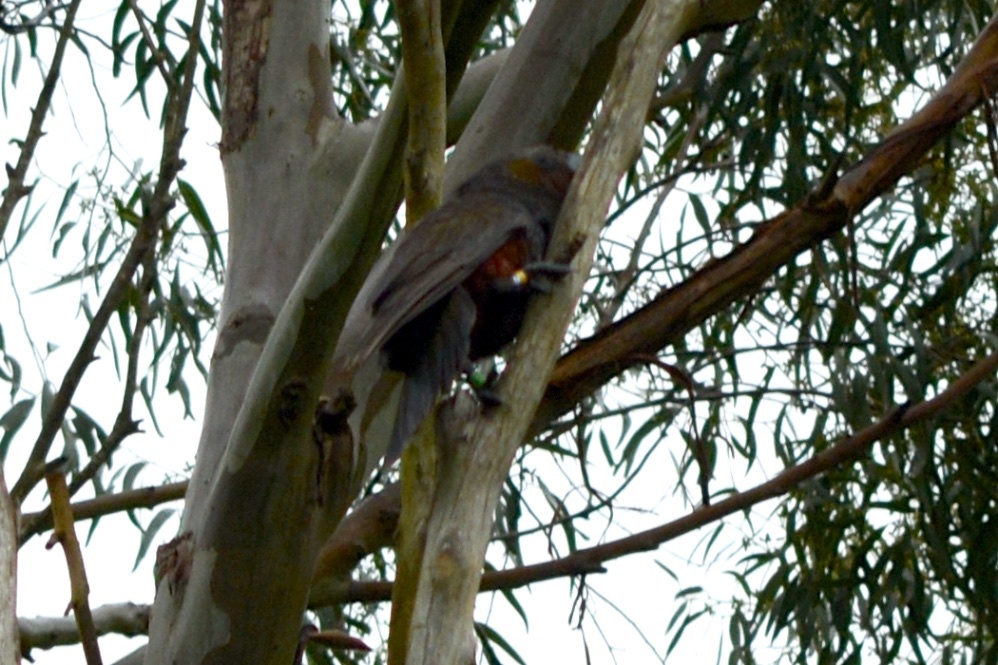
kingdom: Animalia
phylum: Chordata
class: Aves
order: Psittaciformes
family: Psittacidae
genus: Nestor
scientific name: Nestor meridionalis
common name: New zealand kaka
